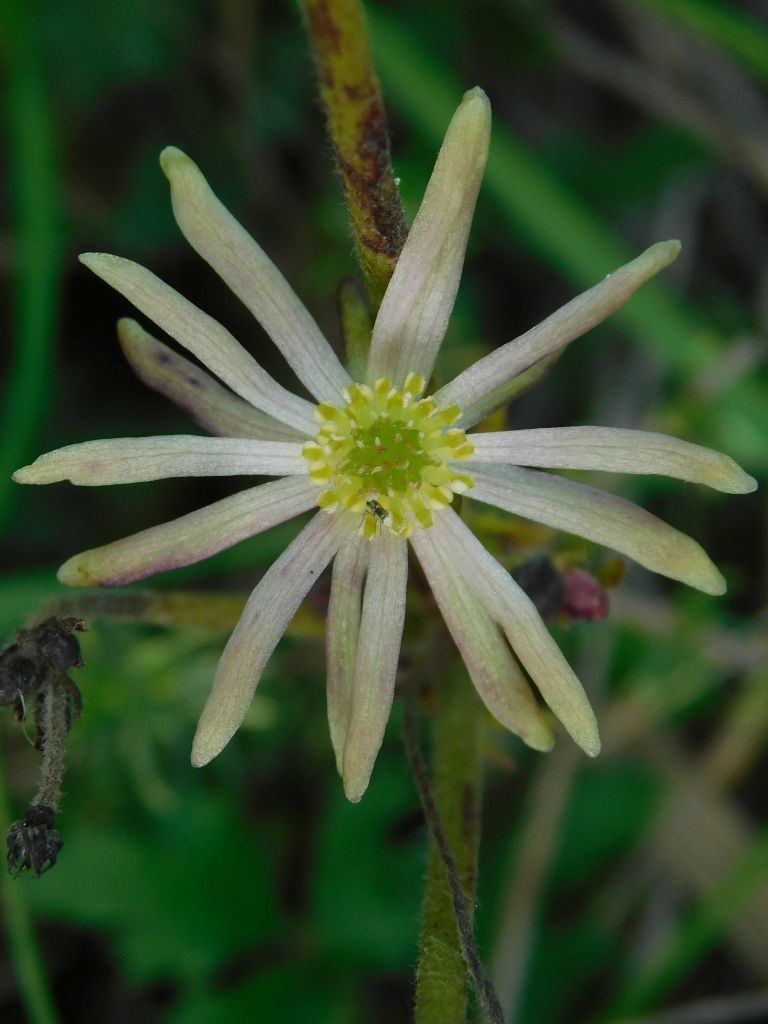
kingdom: Plantae
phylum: Tracheophyta
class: Magnoliopsida
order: Ranunculales
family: Ranunculaceae
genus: Knowltonia
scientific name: Knowltonia anemonoides
